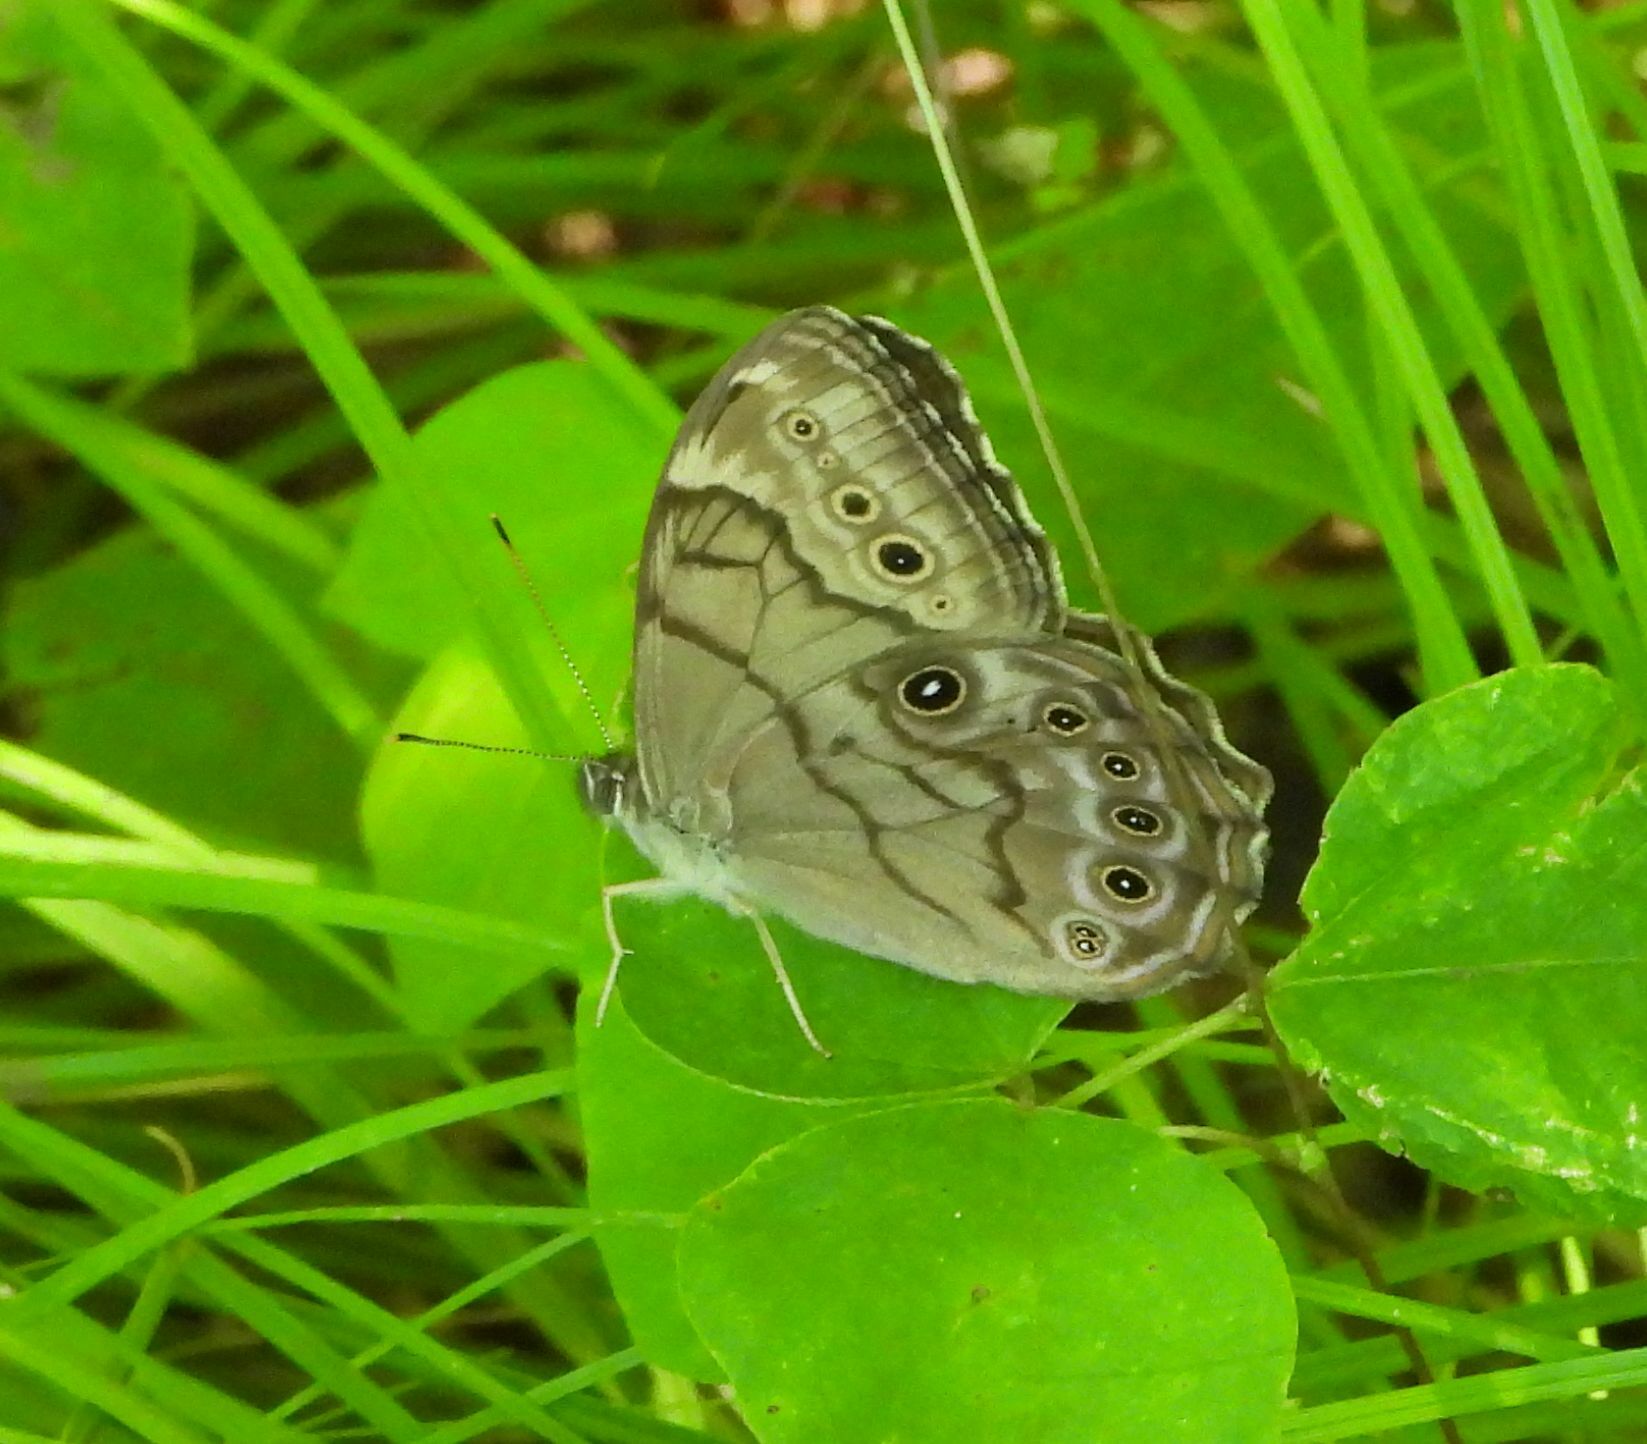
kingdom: Animalia
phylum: Arthropoda
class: Insecta
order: Lepidoptera
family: Nymphalidae
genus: Lethe
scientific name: Lethe anthedon
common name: Northern pearly-eye
